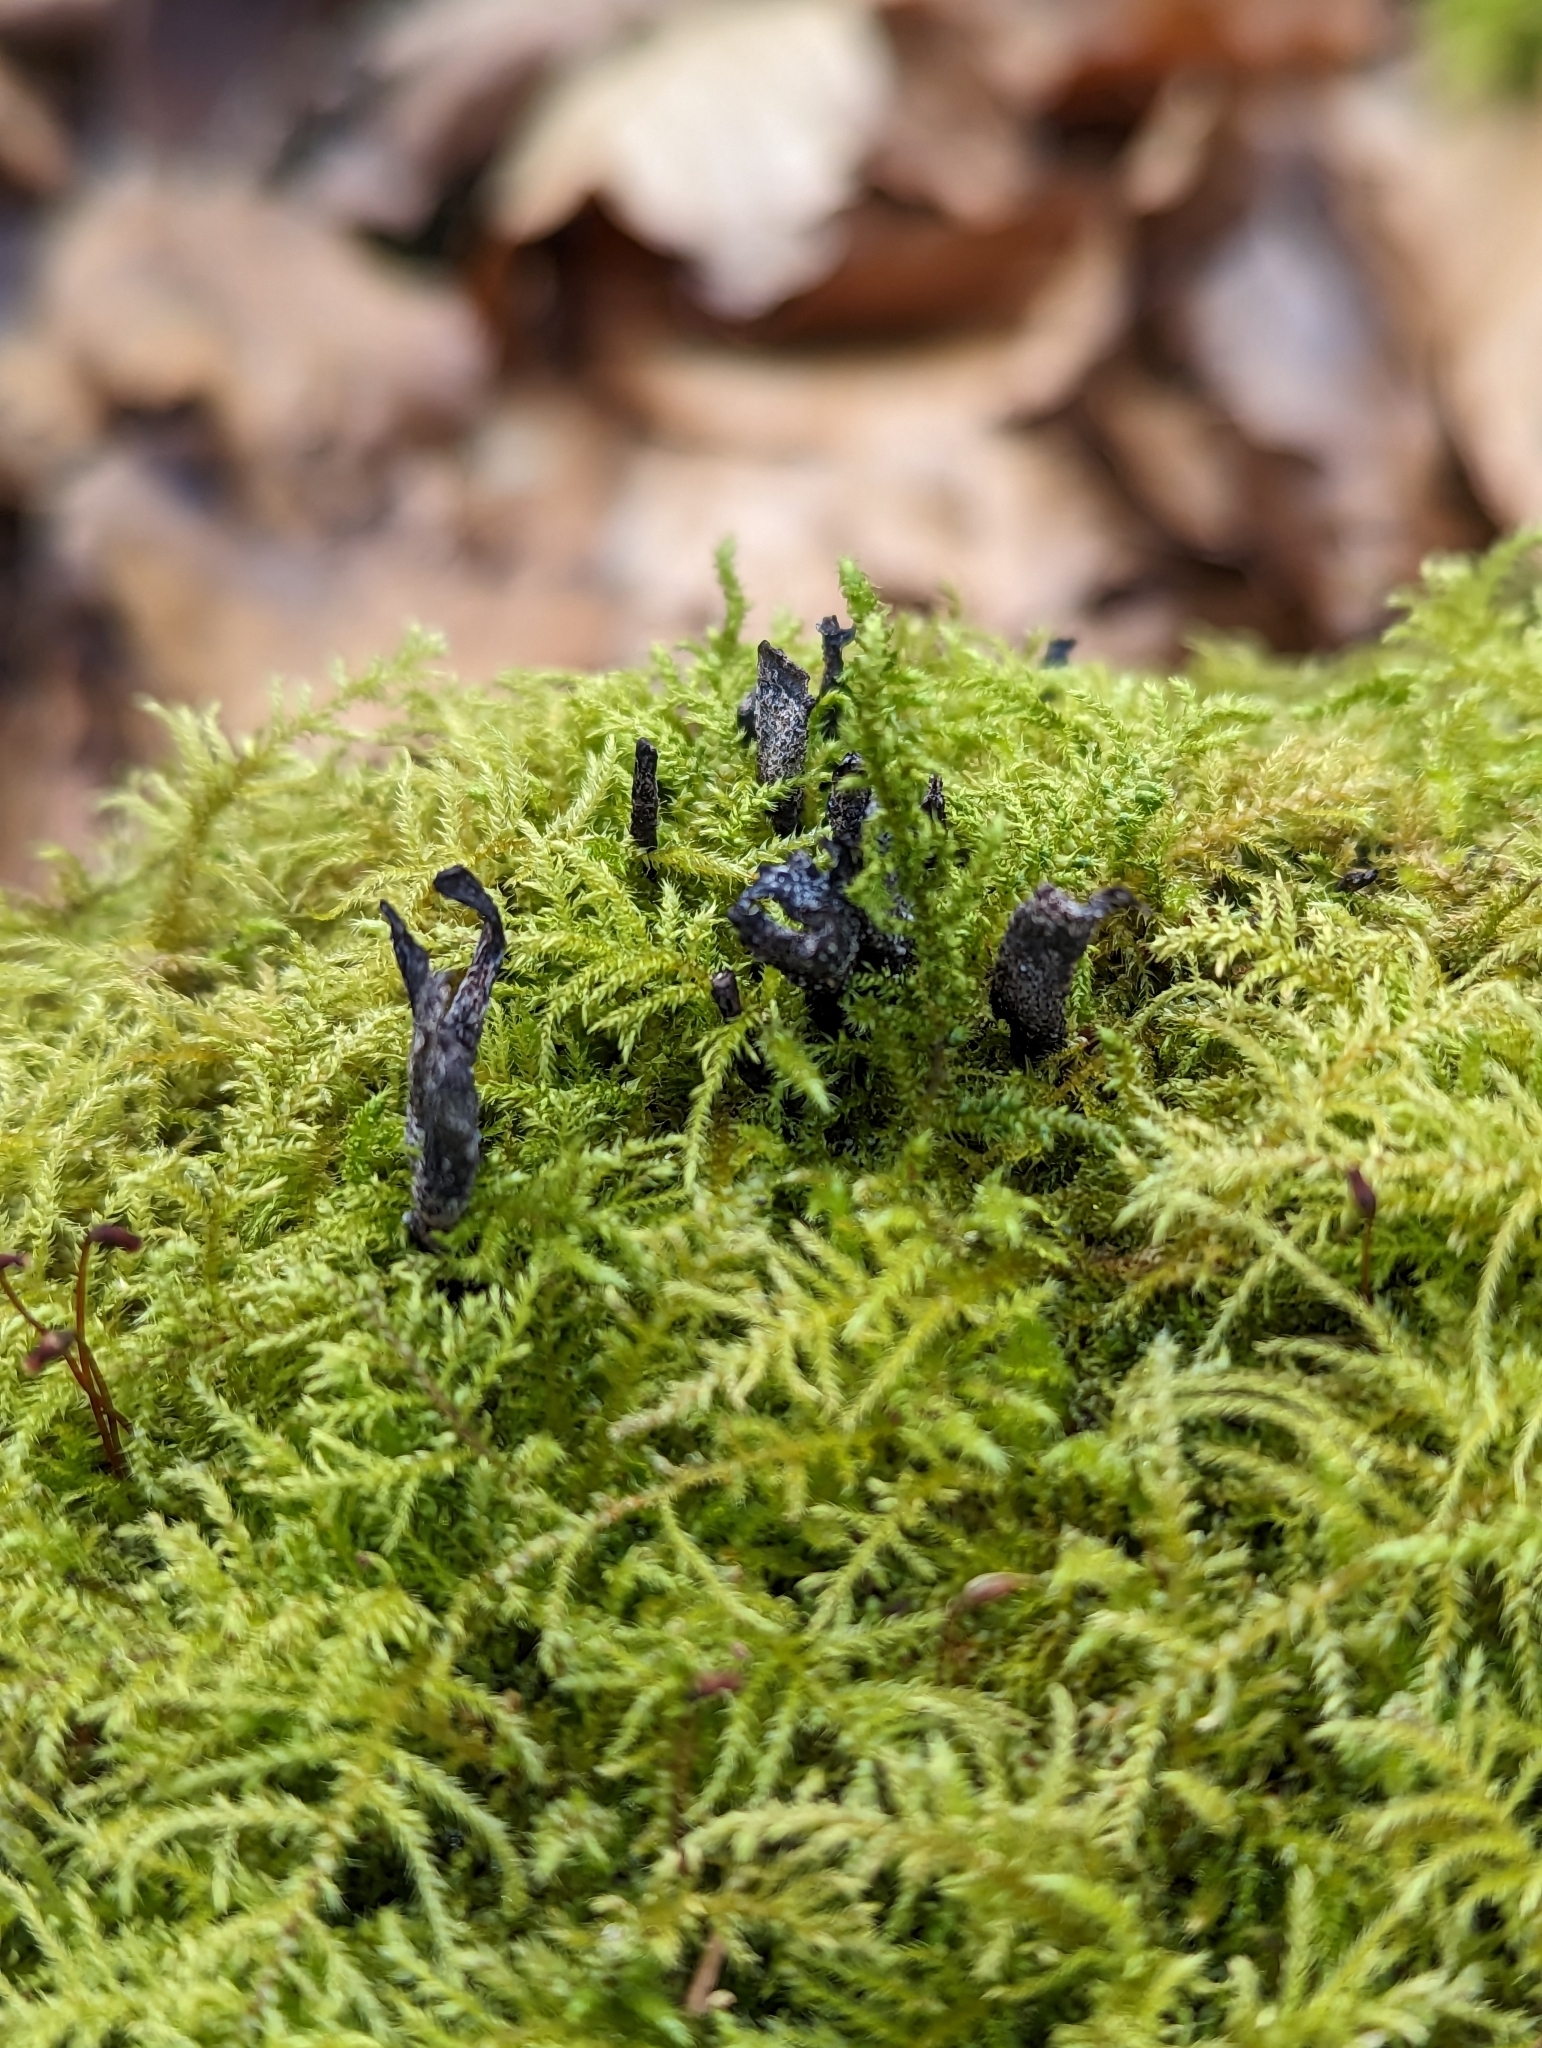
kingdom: Fungi
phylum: Ascomycota
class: Sordariomycetes
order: Xylariales
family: Xylariaceae
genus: Xylaria
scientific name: Xylaria hypoxylon
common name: Candle-snuff fungus
